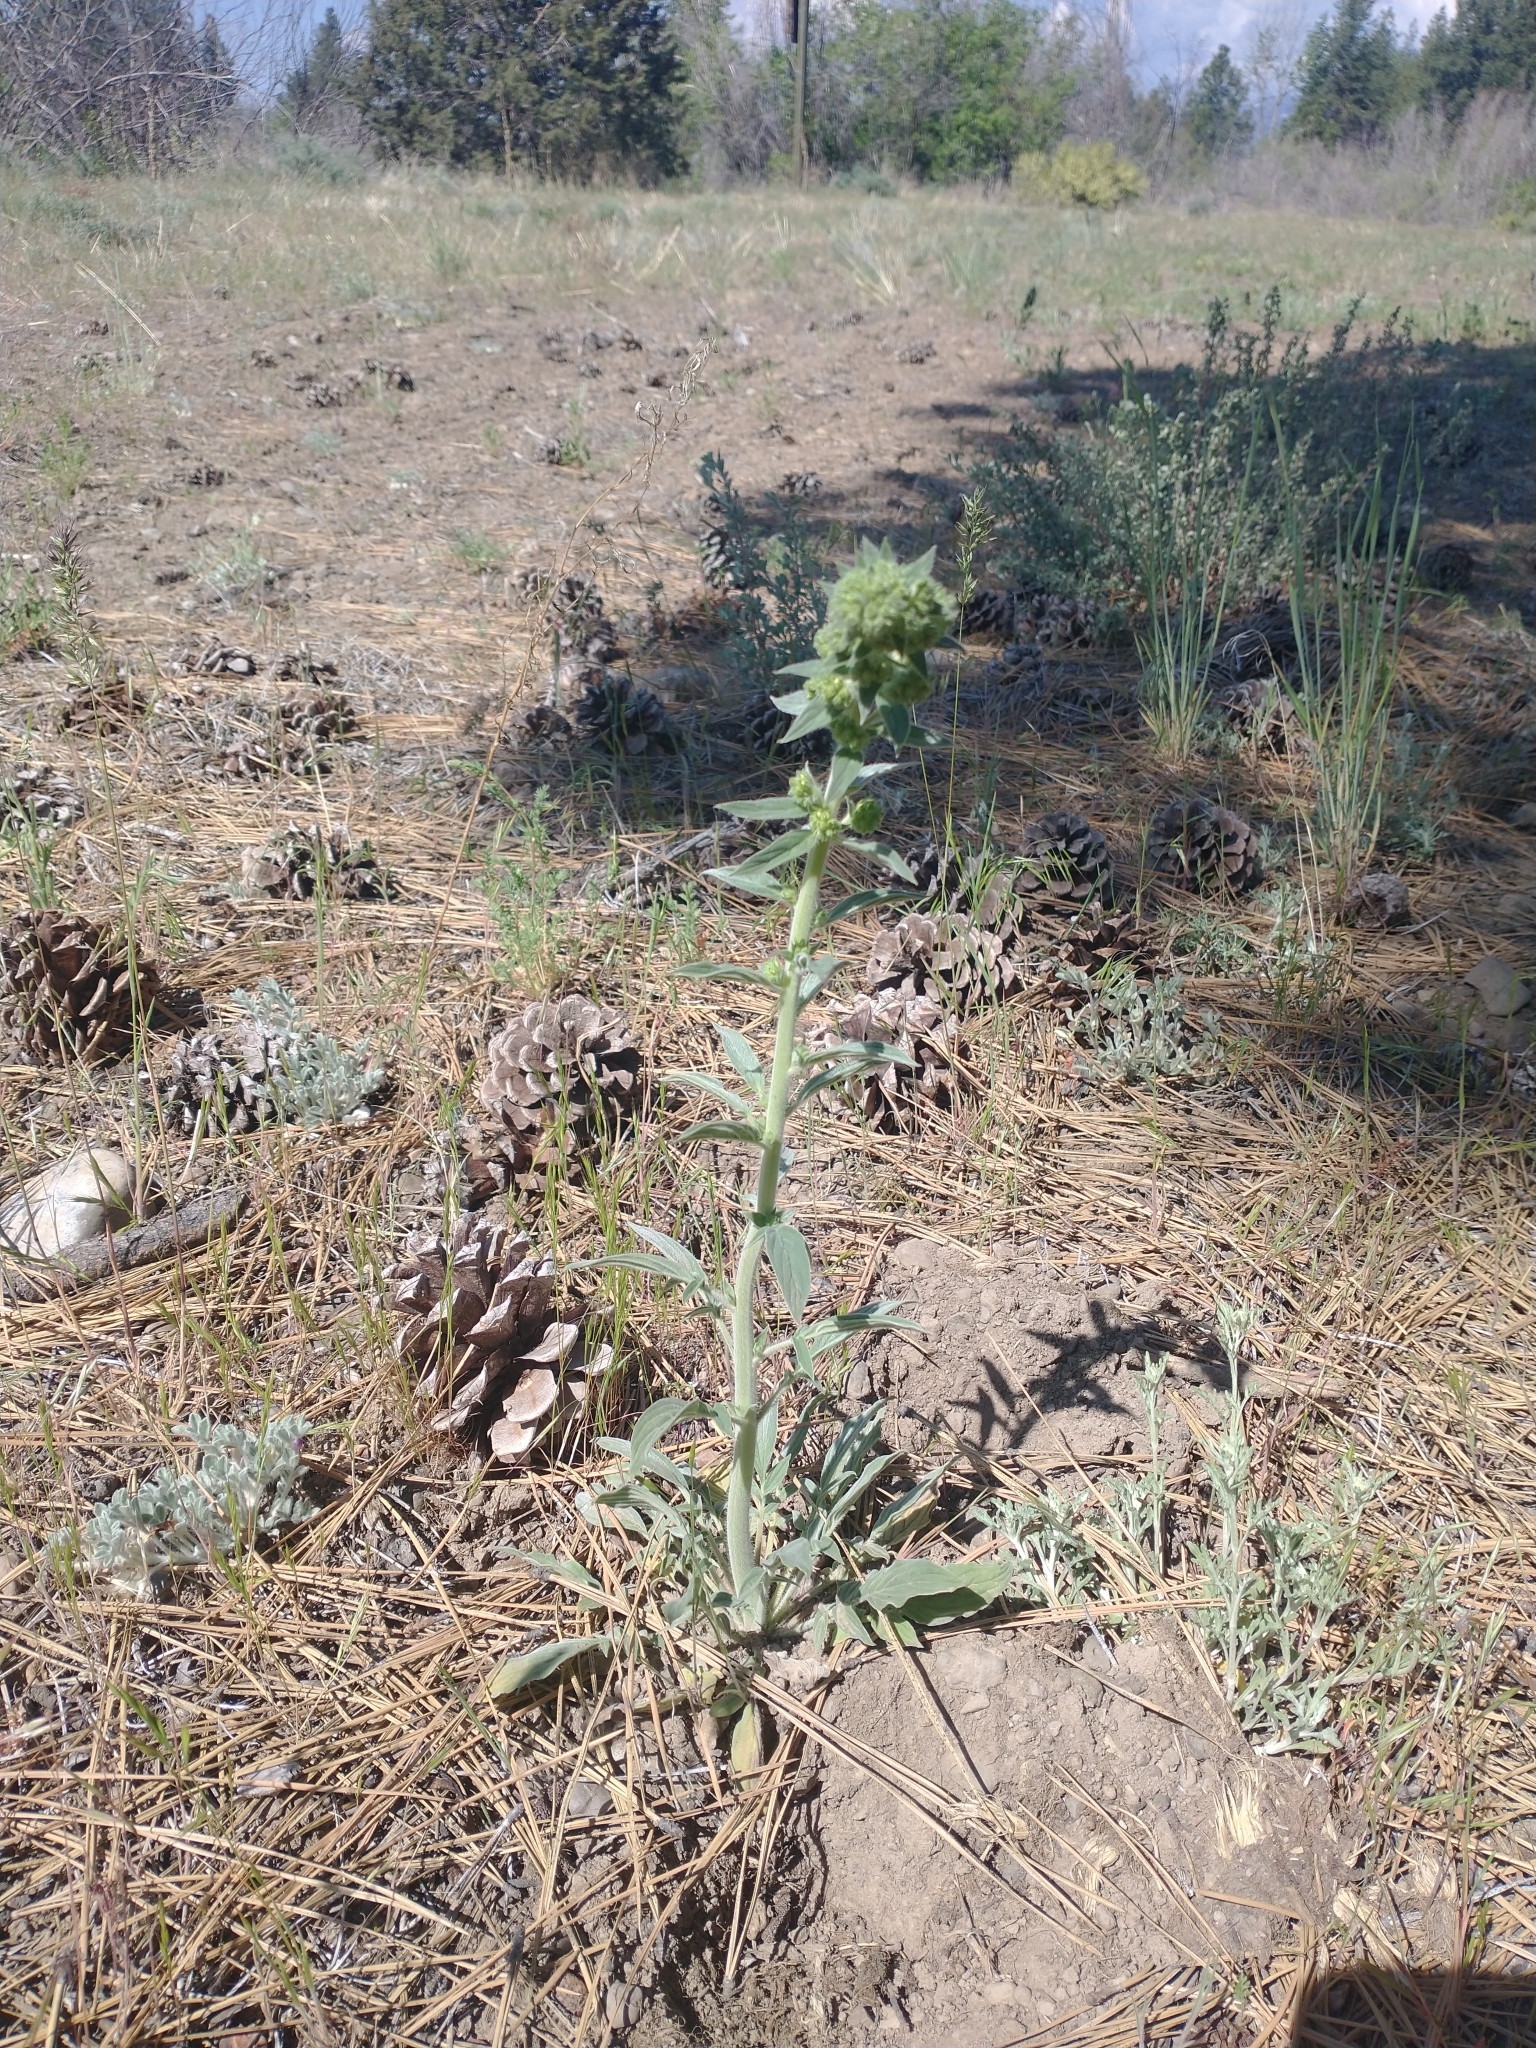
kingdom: Plantae
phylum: Tracheophyta
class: Magnoliopsida
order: Boraginales
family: Hydrophyllaceae
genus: Phacelia
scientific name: Phacelia heterophylla
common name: Variable-leaved phacelia
